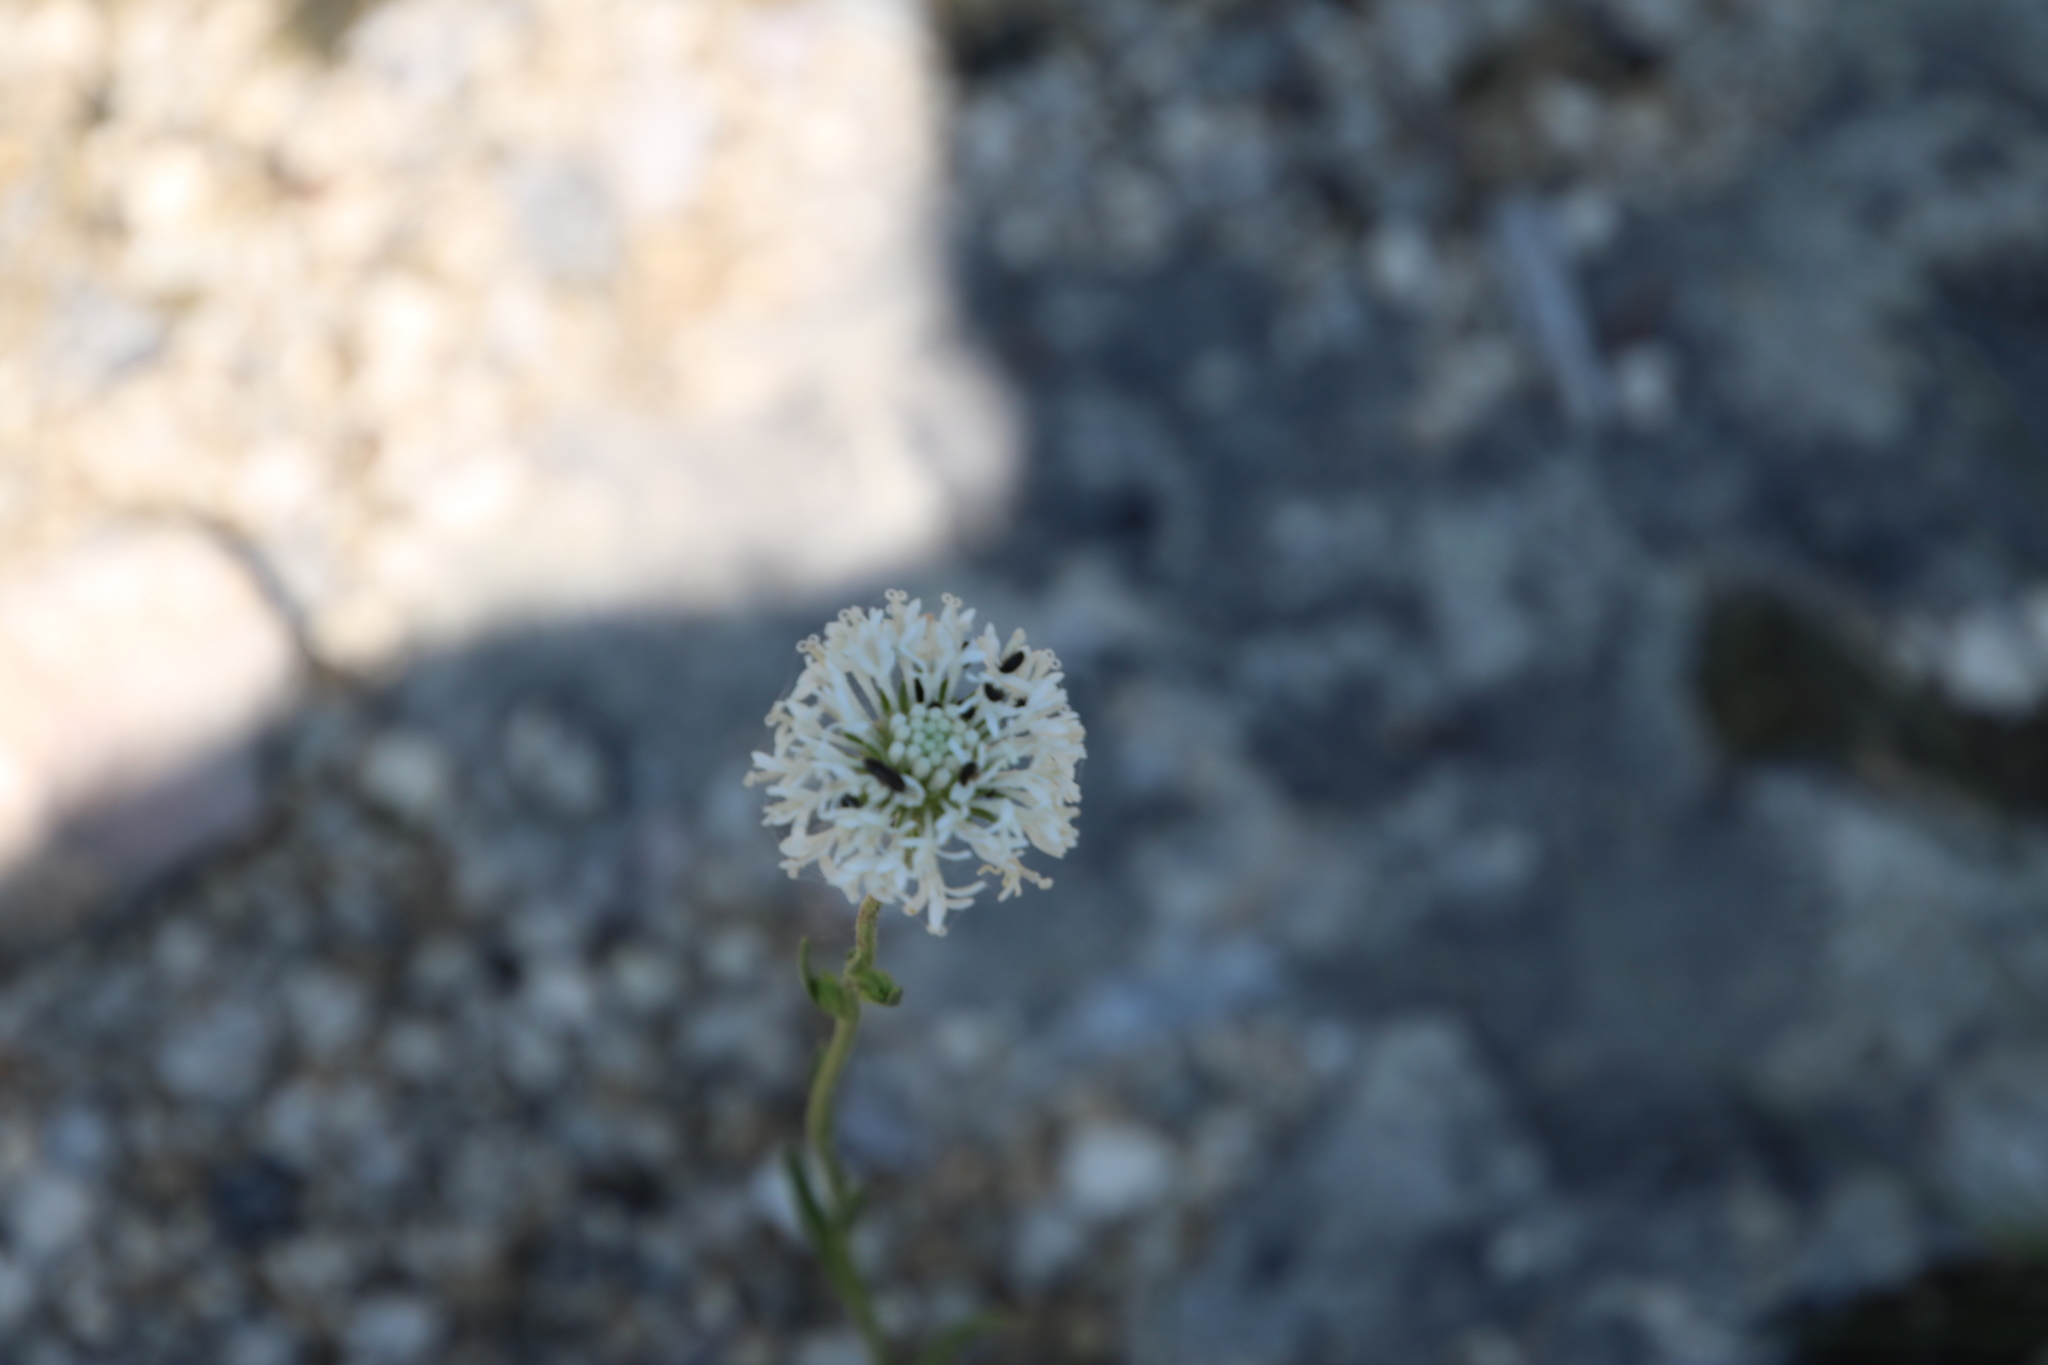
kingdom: Plantae
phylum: Tracheophyta
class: Magnoliopsida
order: Asterales
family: Asteraceae
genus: Marshallia
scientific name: Marshallia caespitosa
